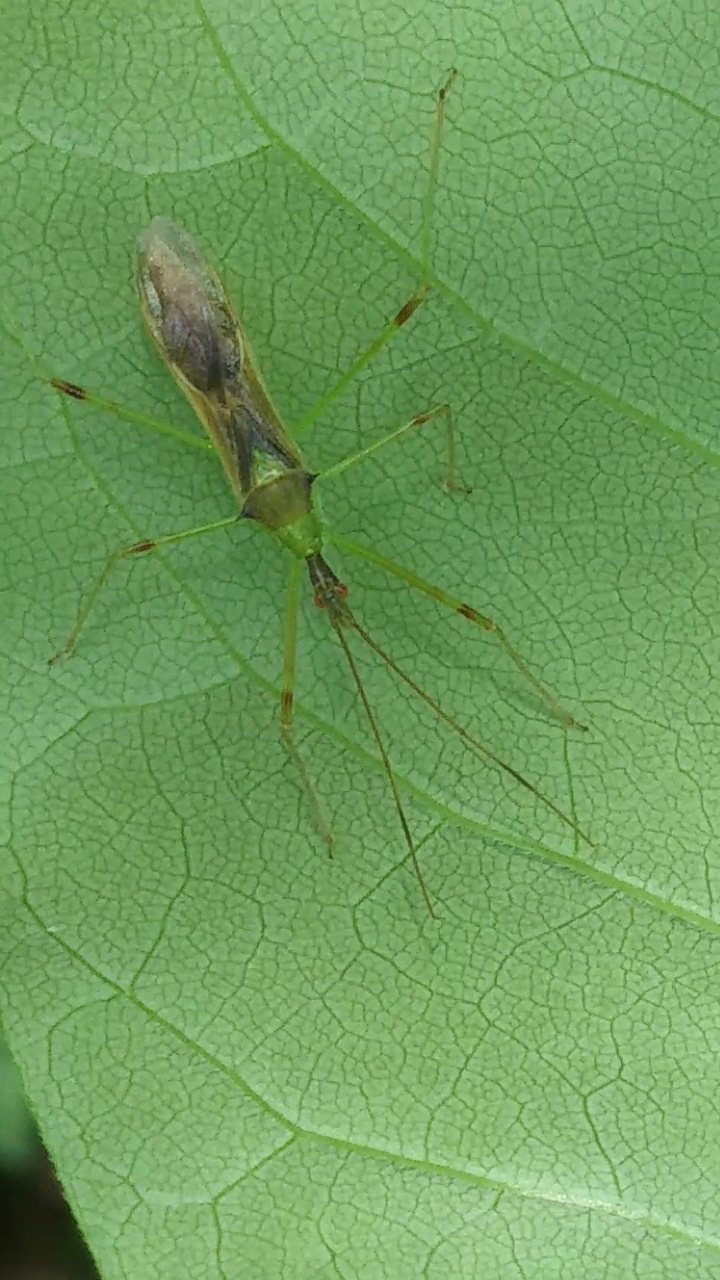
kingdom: Animalia
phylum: Arthropoda
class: Insecta
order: Hemiptera
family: Reduviidae
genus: Zelus
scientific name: Zelus luridus
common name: Pale green assassin bug
